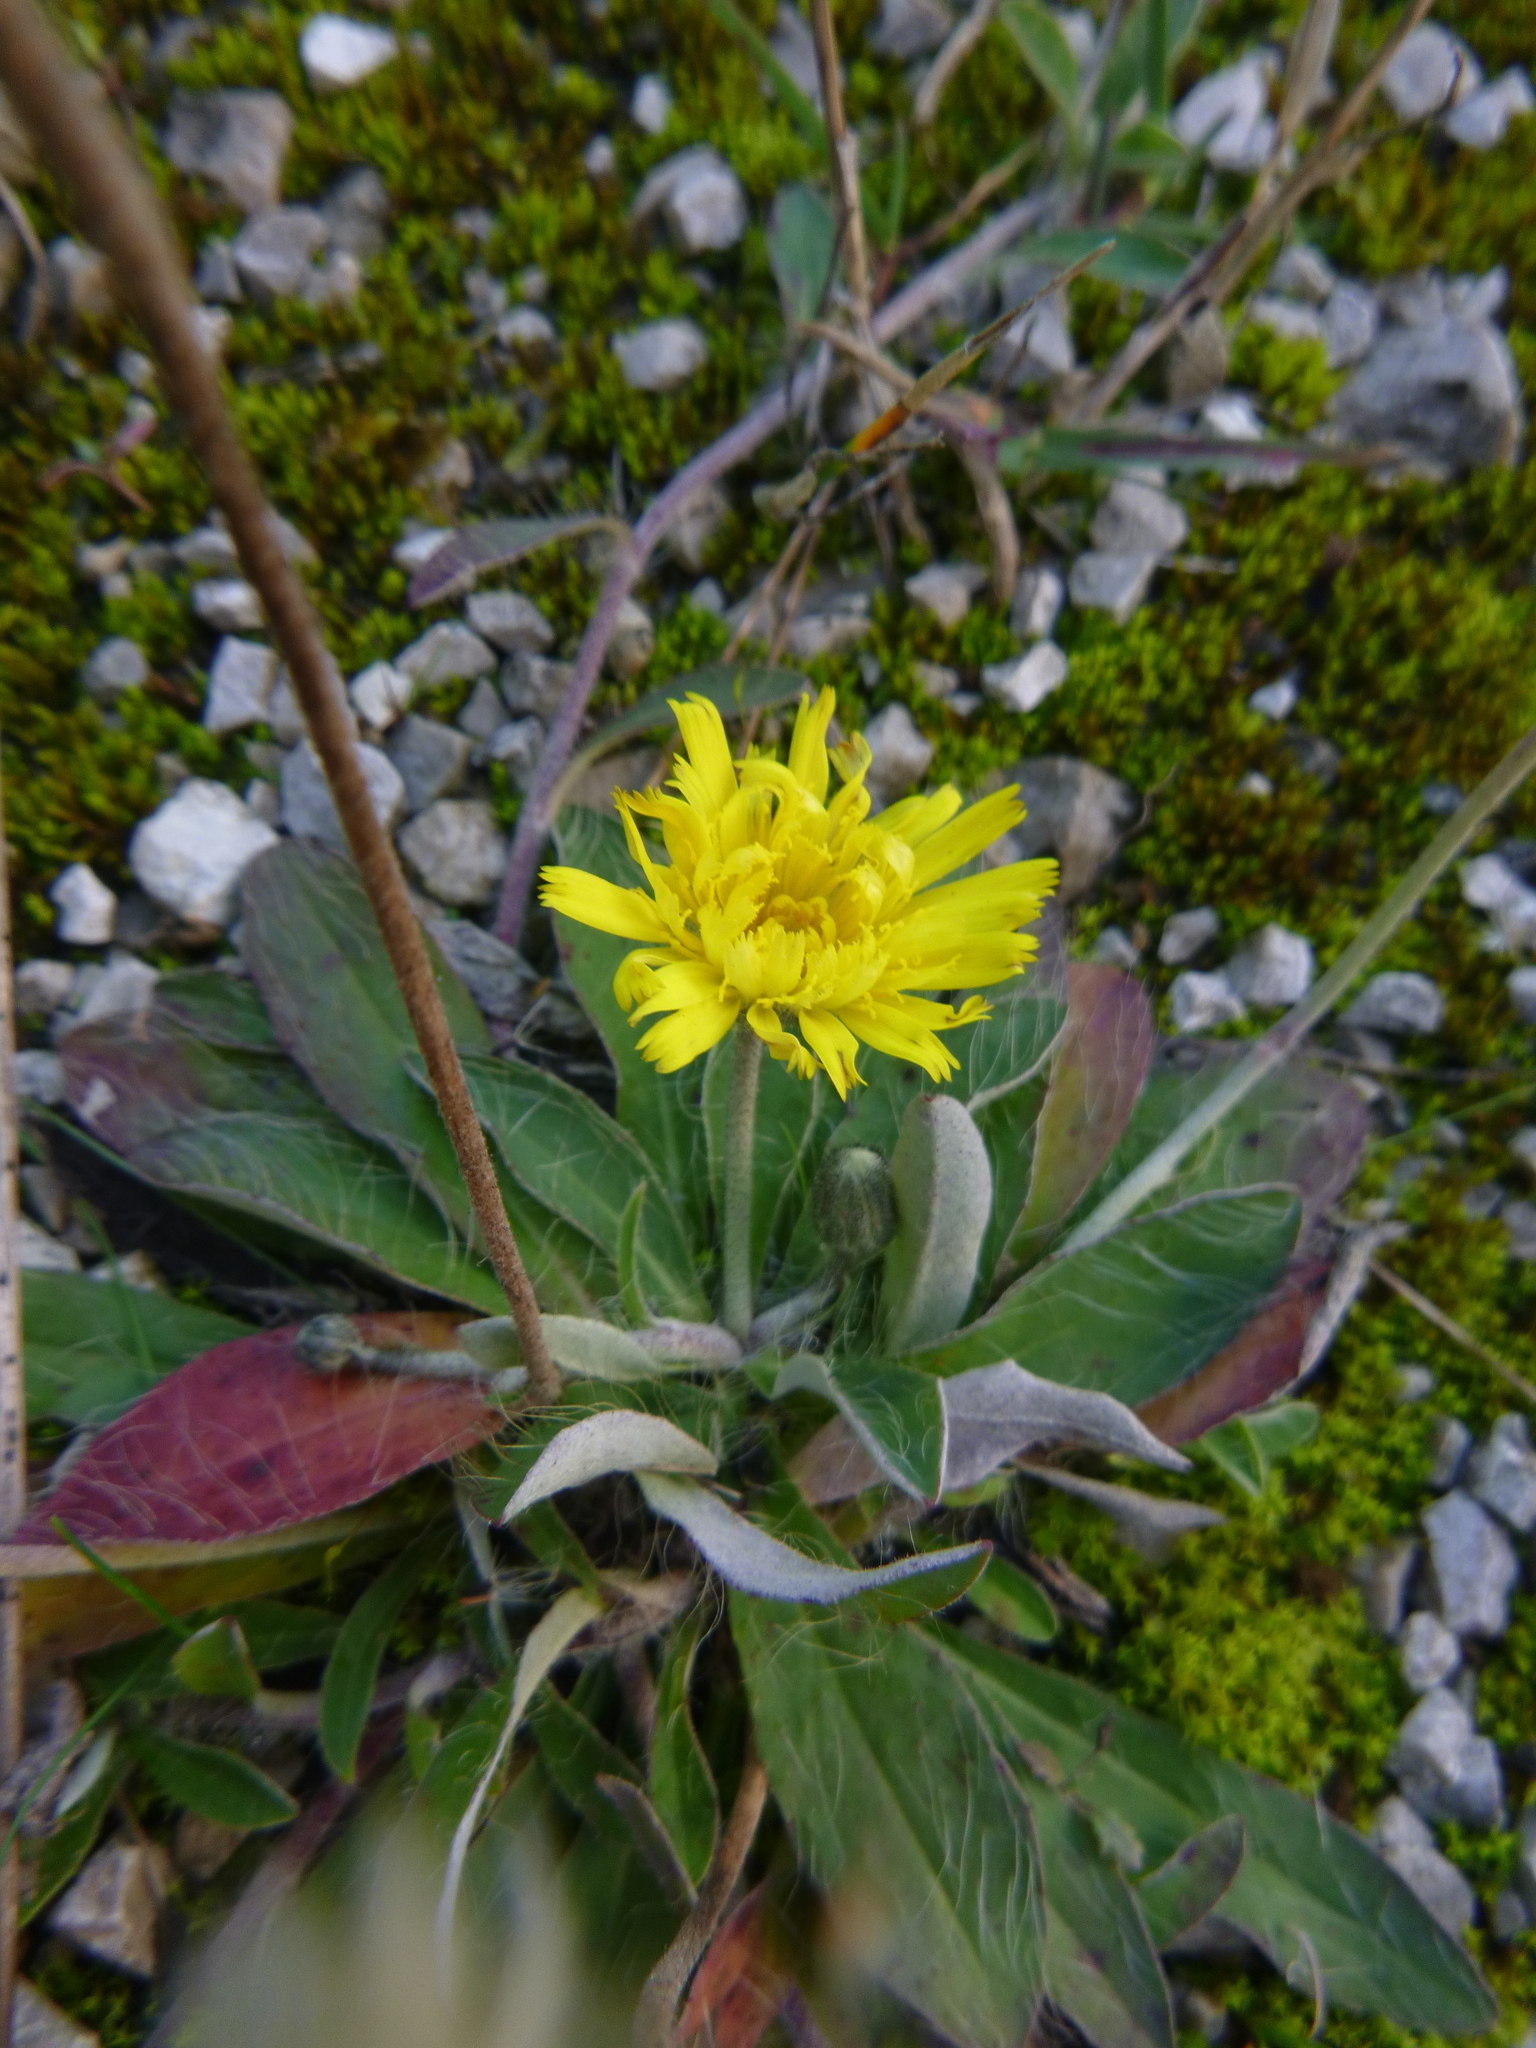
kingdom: Plantae
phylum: Tracheophyta
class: Magnoliopsida
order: Asterales
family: Asteraceae
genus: Pilosella
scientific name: Pilosella officinarum
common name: Mouse-ear hawkweed
